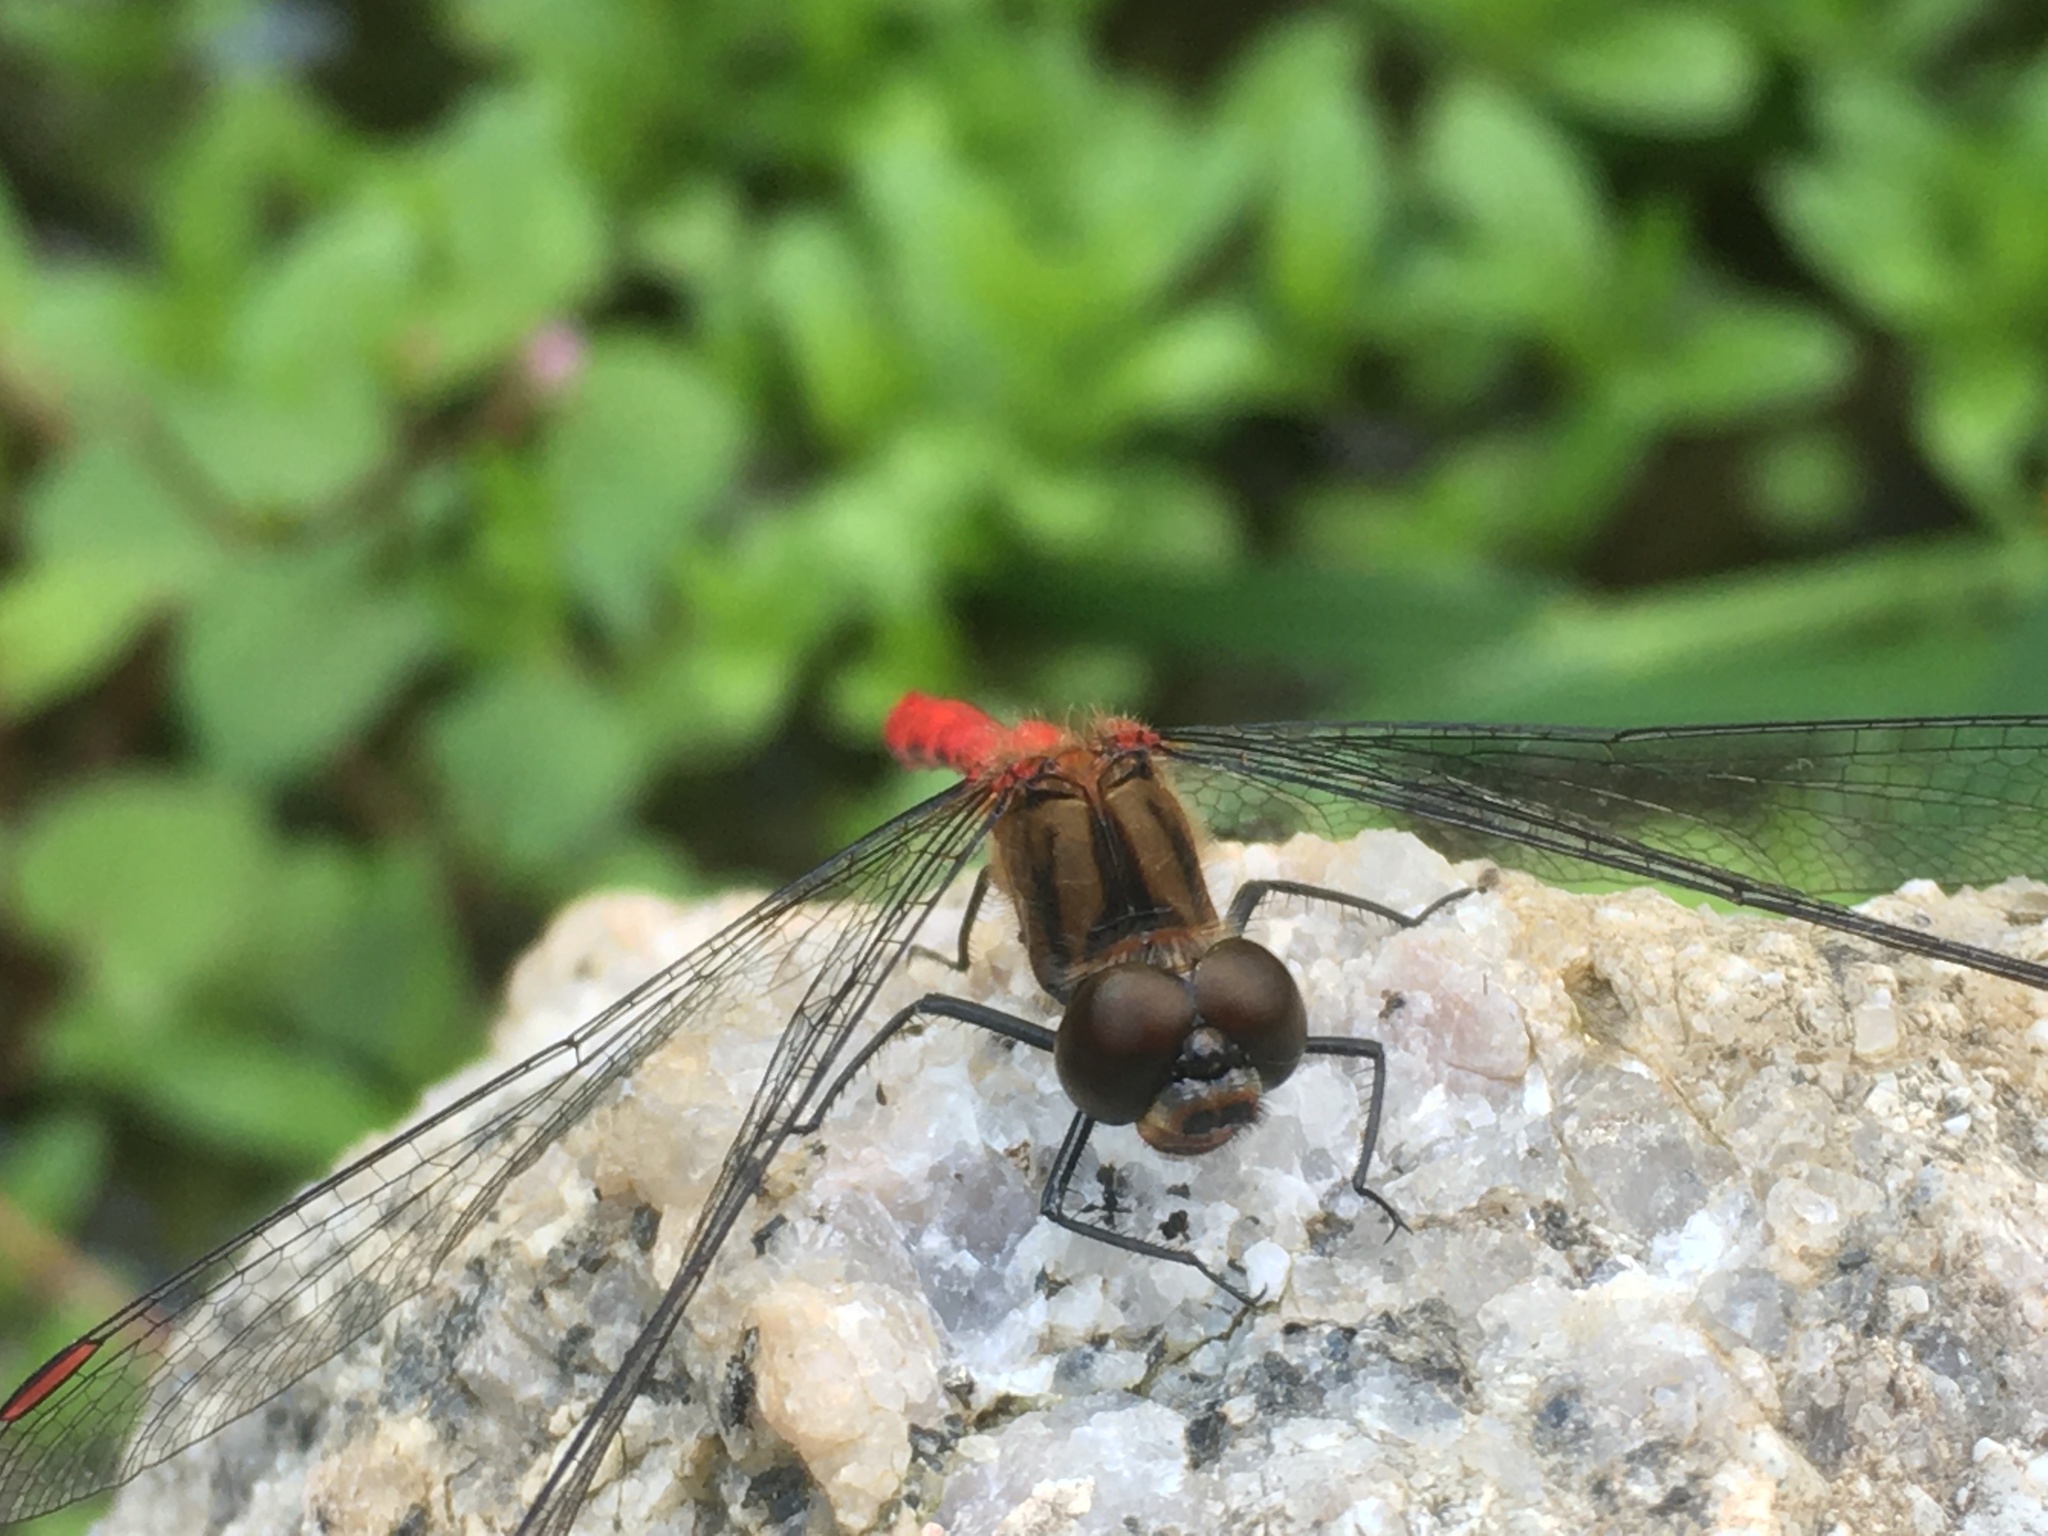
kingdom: Animalia
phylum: Arthropoda
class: Insecta
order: Odonata
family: Libellulidae
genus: Sympetrum
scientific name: Sympetrum eroticum
